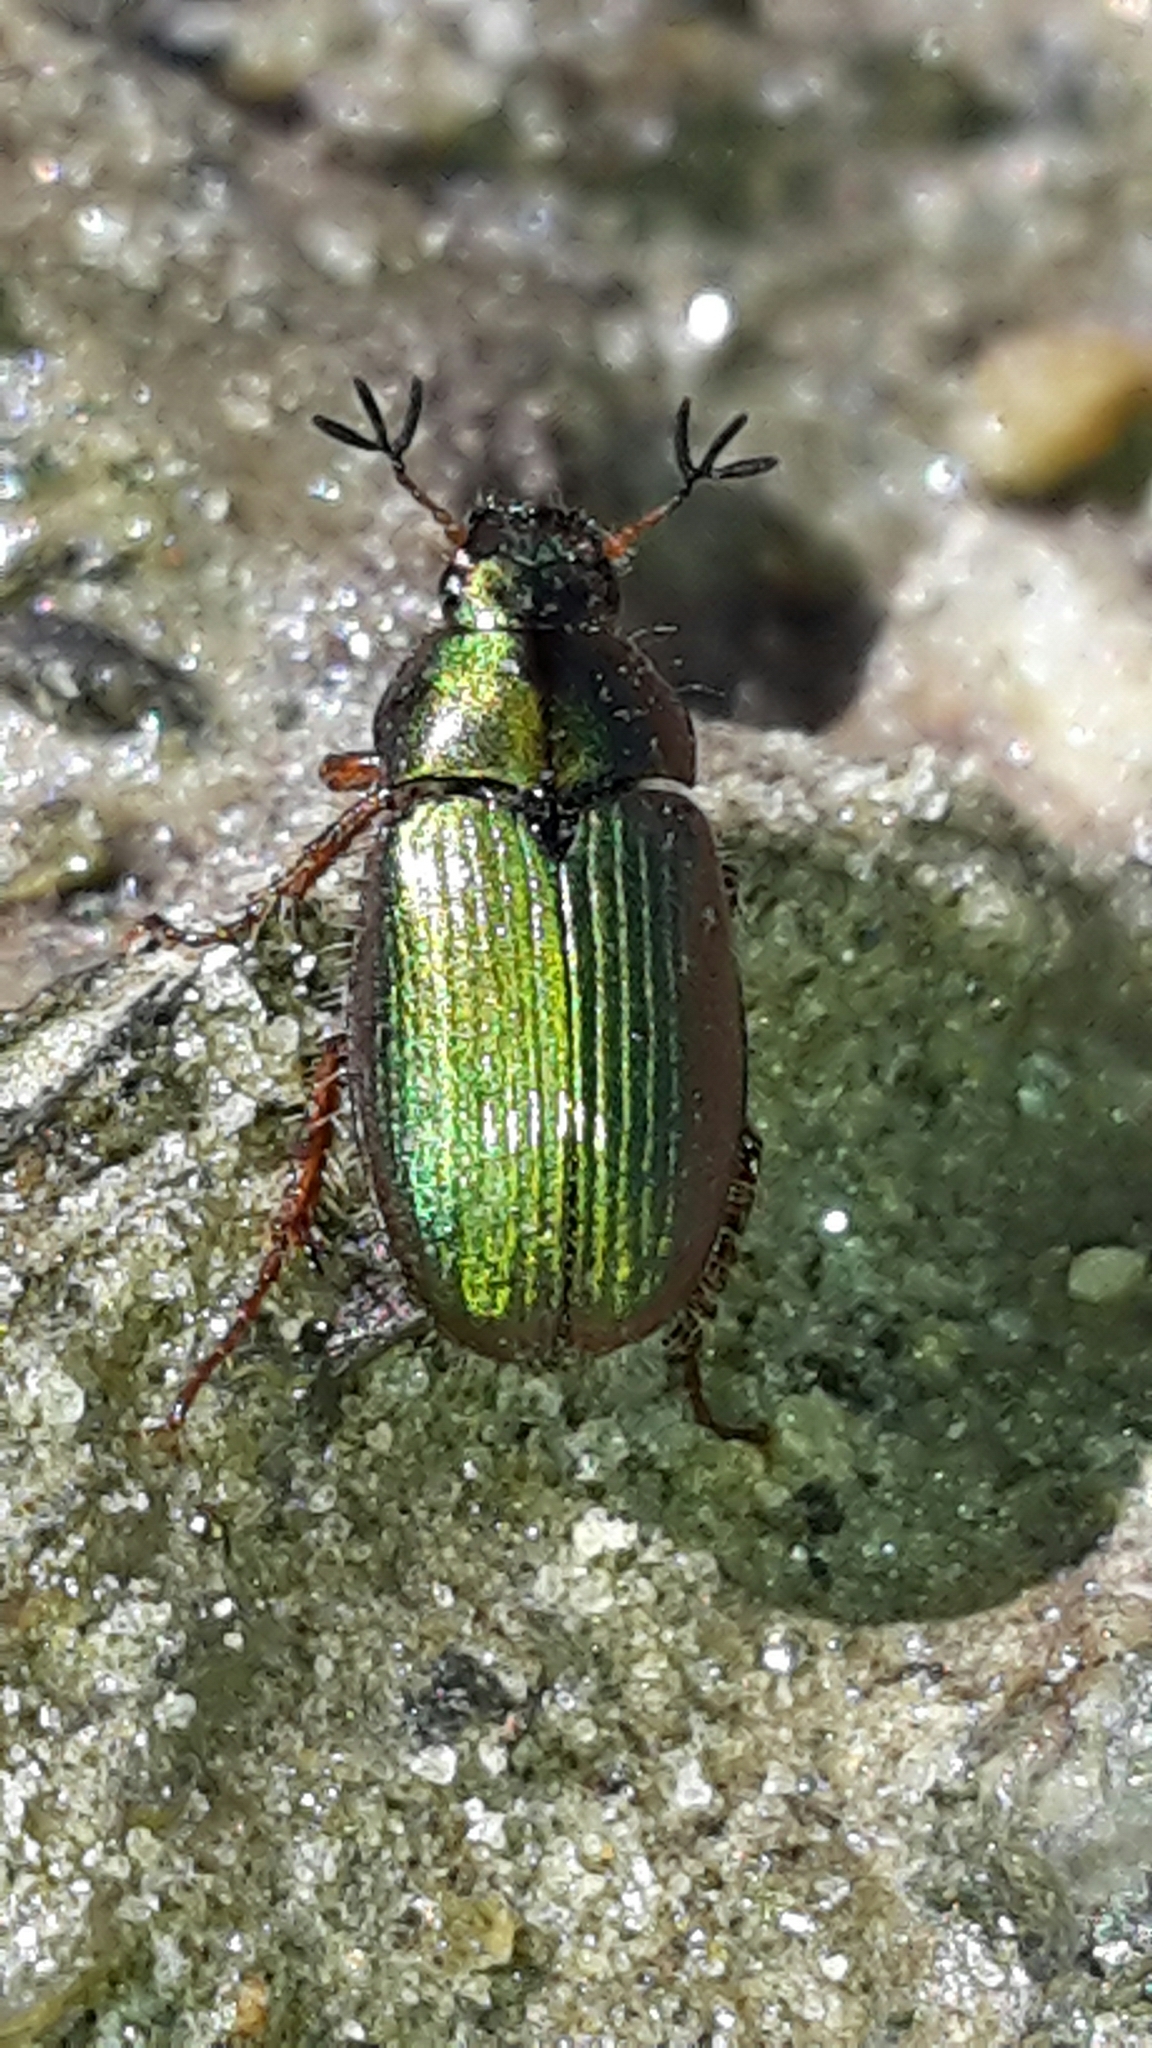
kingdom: Animalia
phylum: Arthropoda
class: Insecta
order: Coleoptera
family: Scarabaeidae
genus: Pyronota
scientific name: Pyronota festiva
